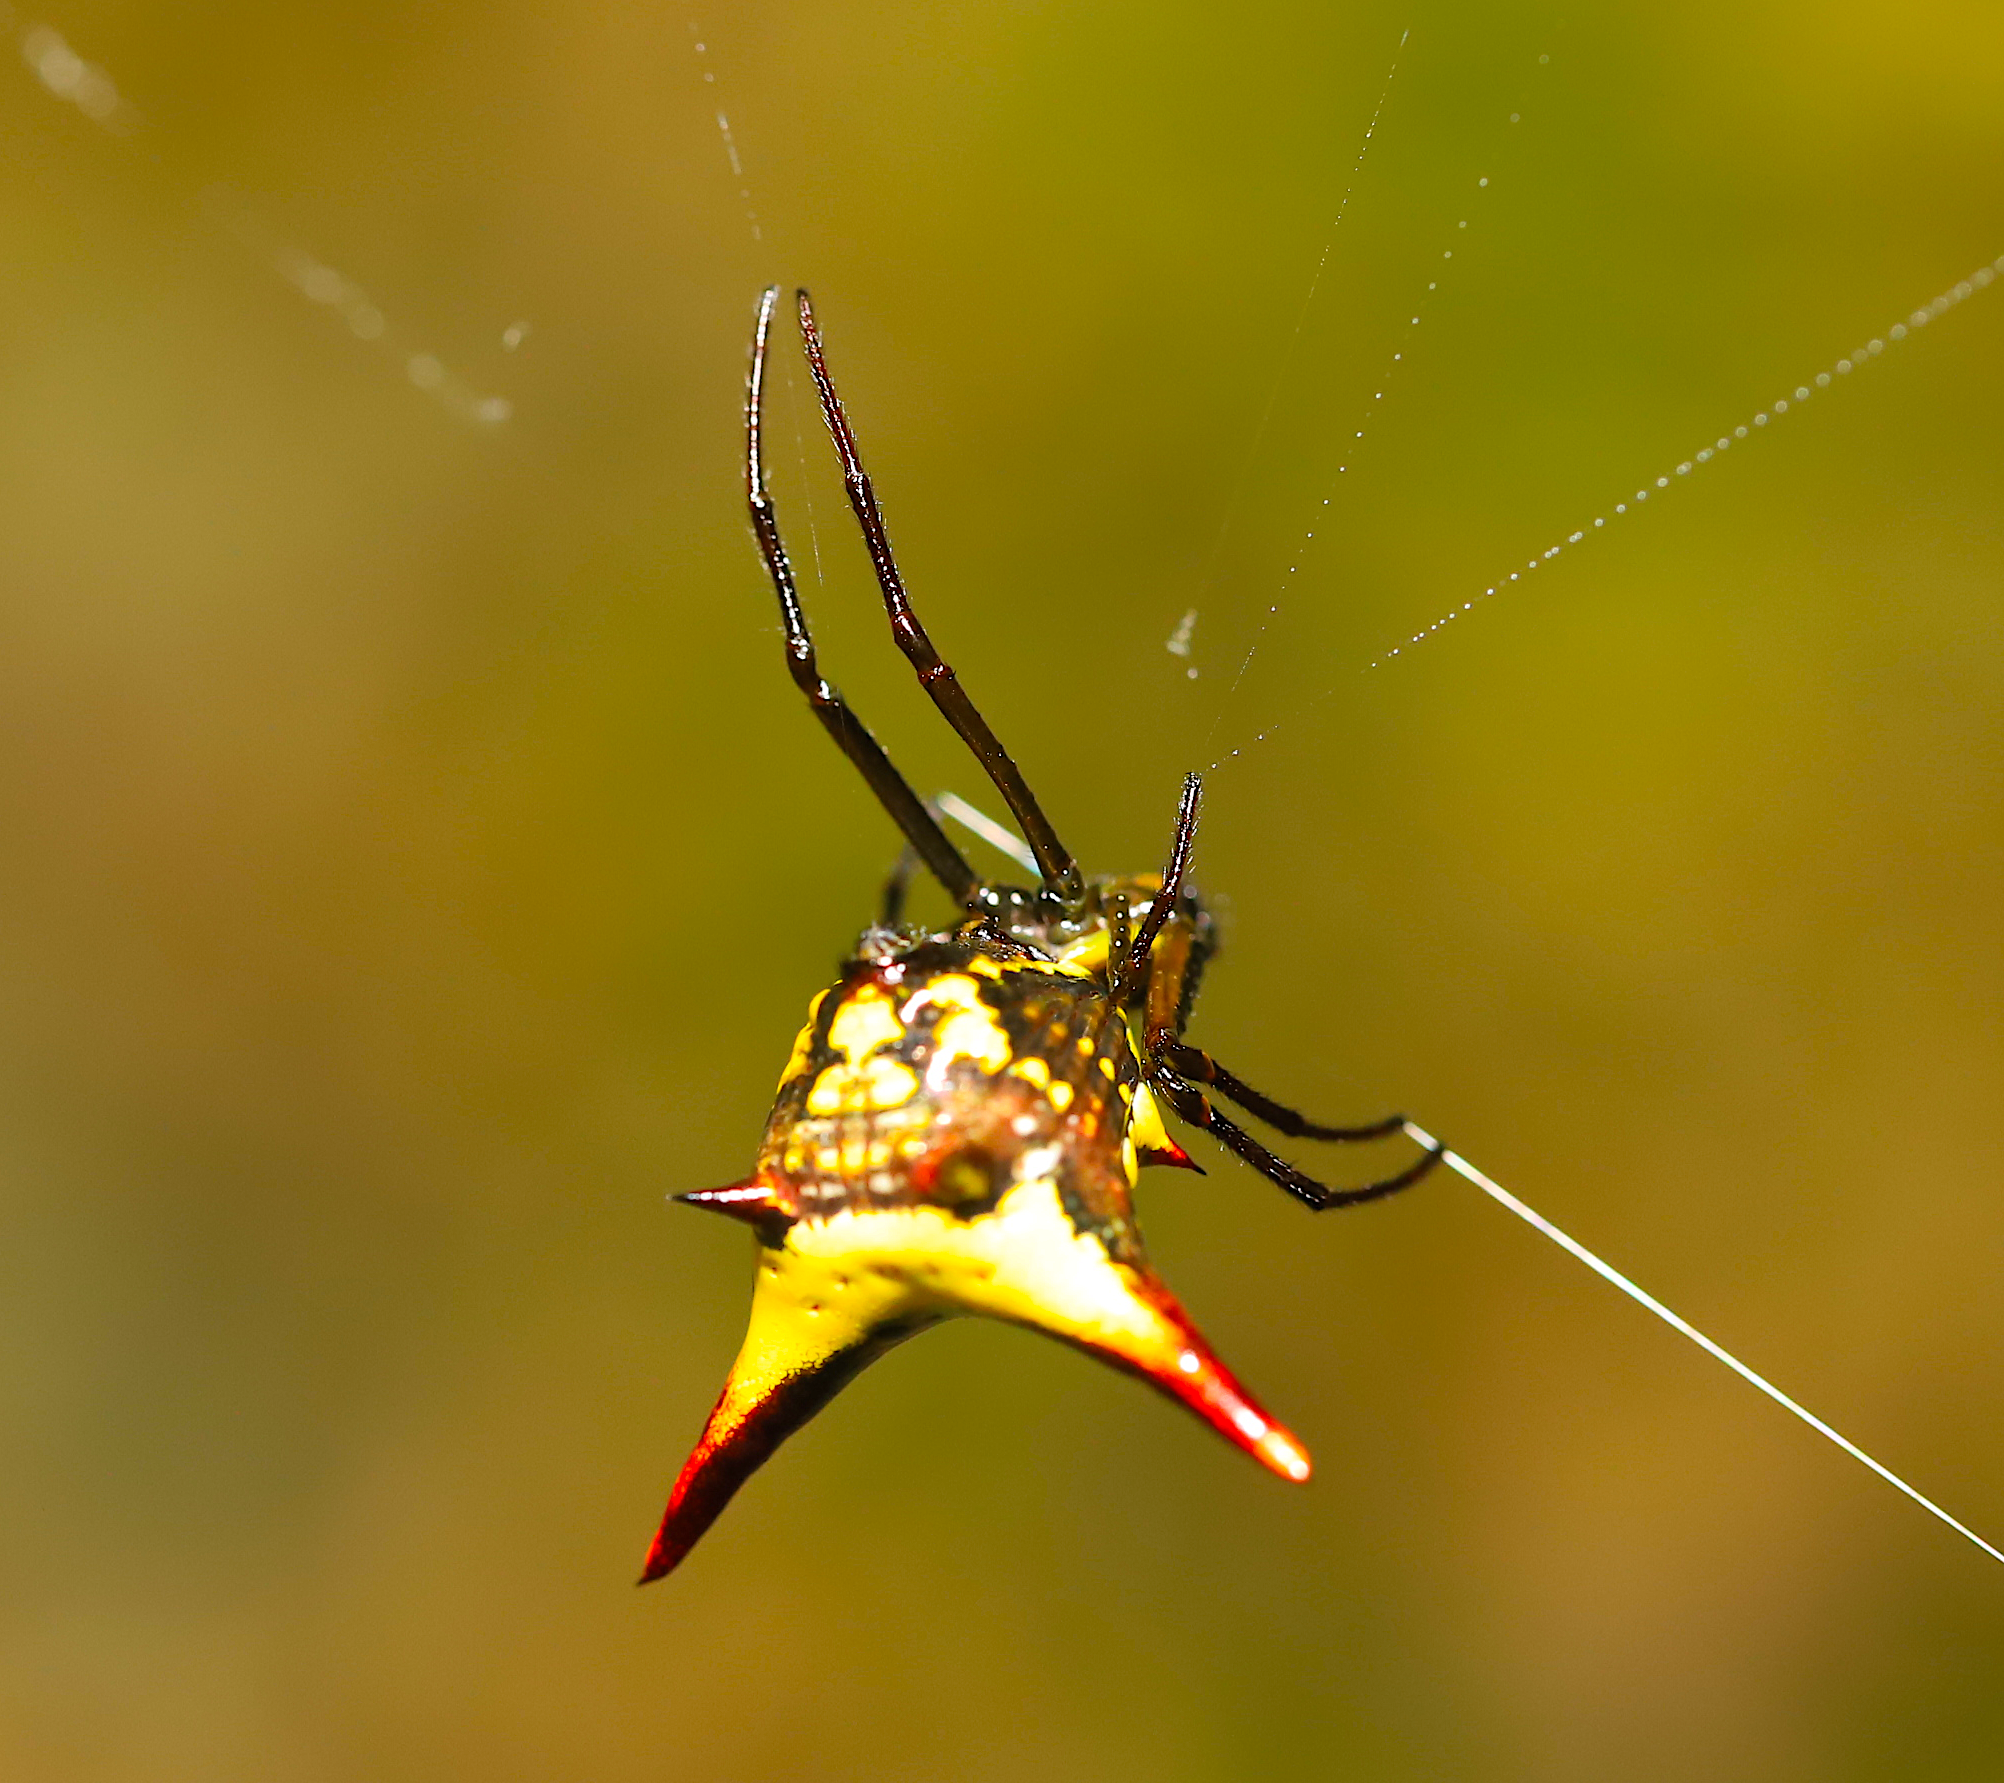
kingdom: Animalia
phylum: Arthropoda
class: Arachnida
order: Araneae
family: Araneidae
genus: Micrathena
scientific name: Micrathena
